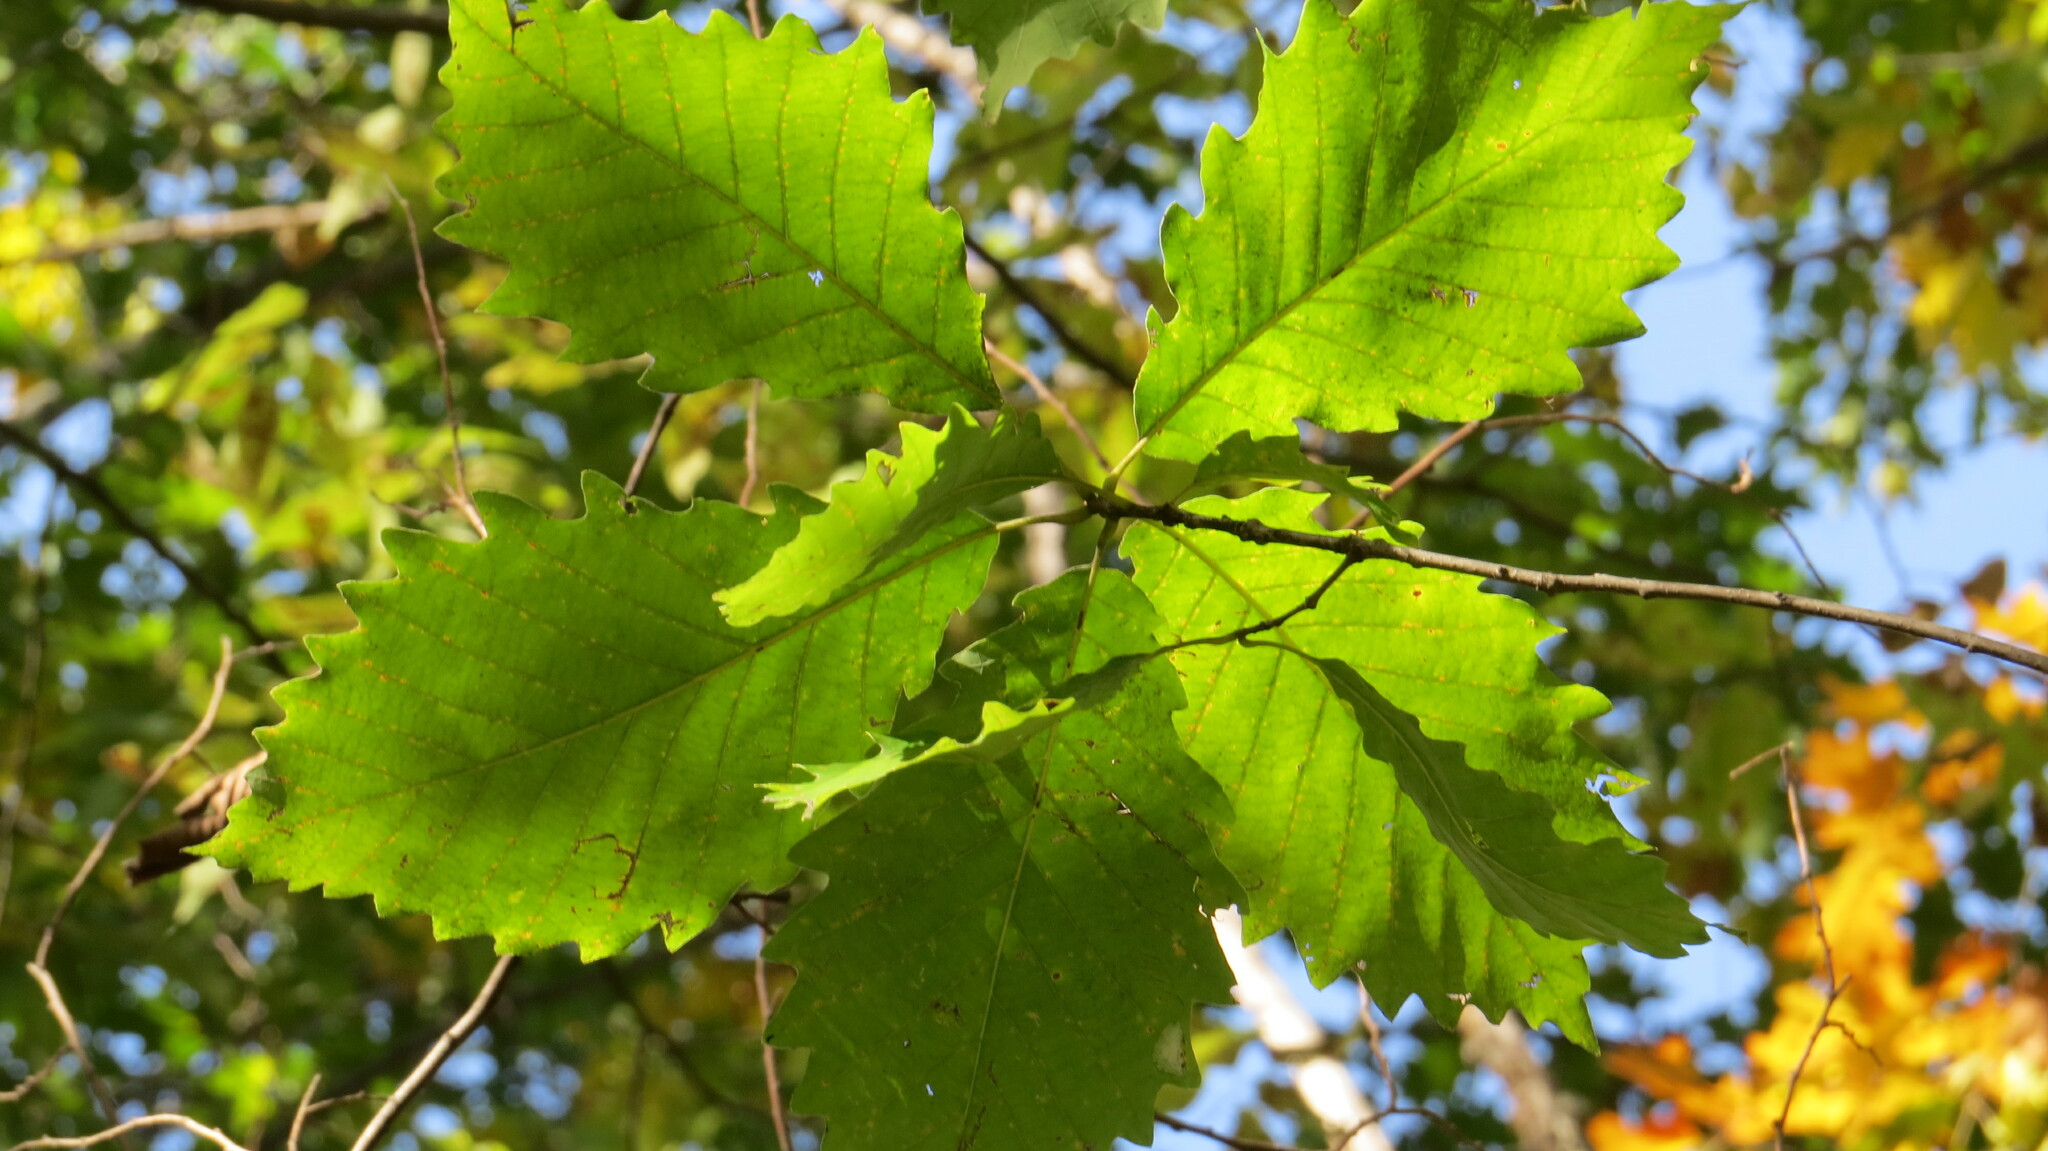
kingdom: Plantae
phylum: Tracheophyta
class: Magnoliopsida
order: Fagales
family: Fagaceae
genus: Quercus
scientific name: Quercus muehlenbergii
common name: Chinkapin oak
